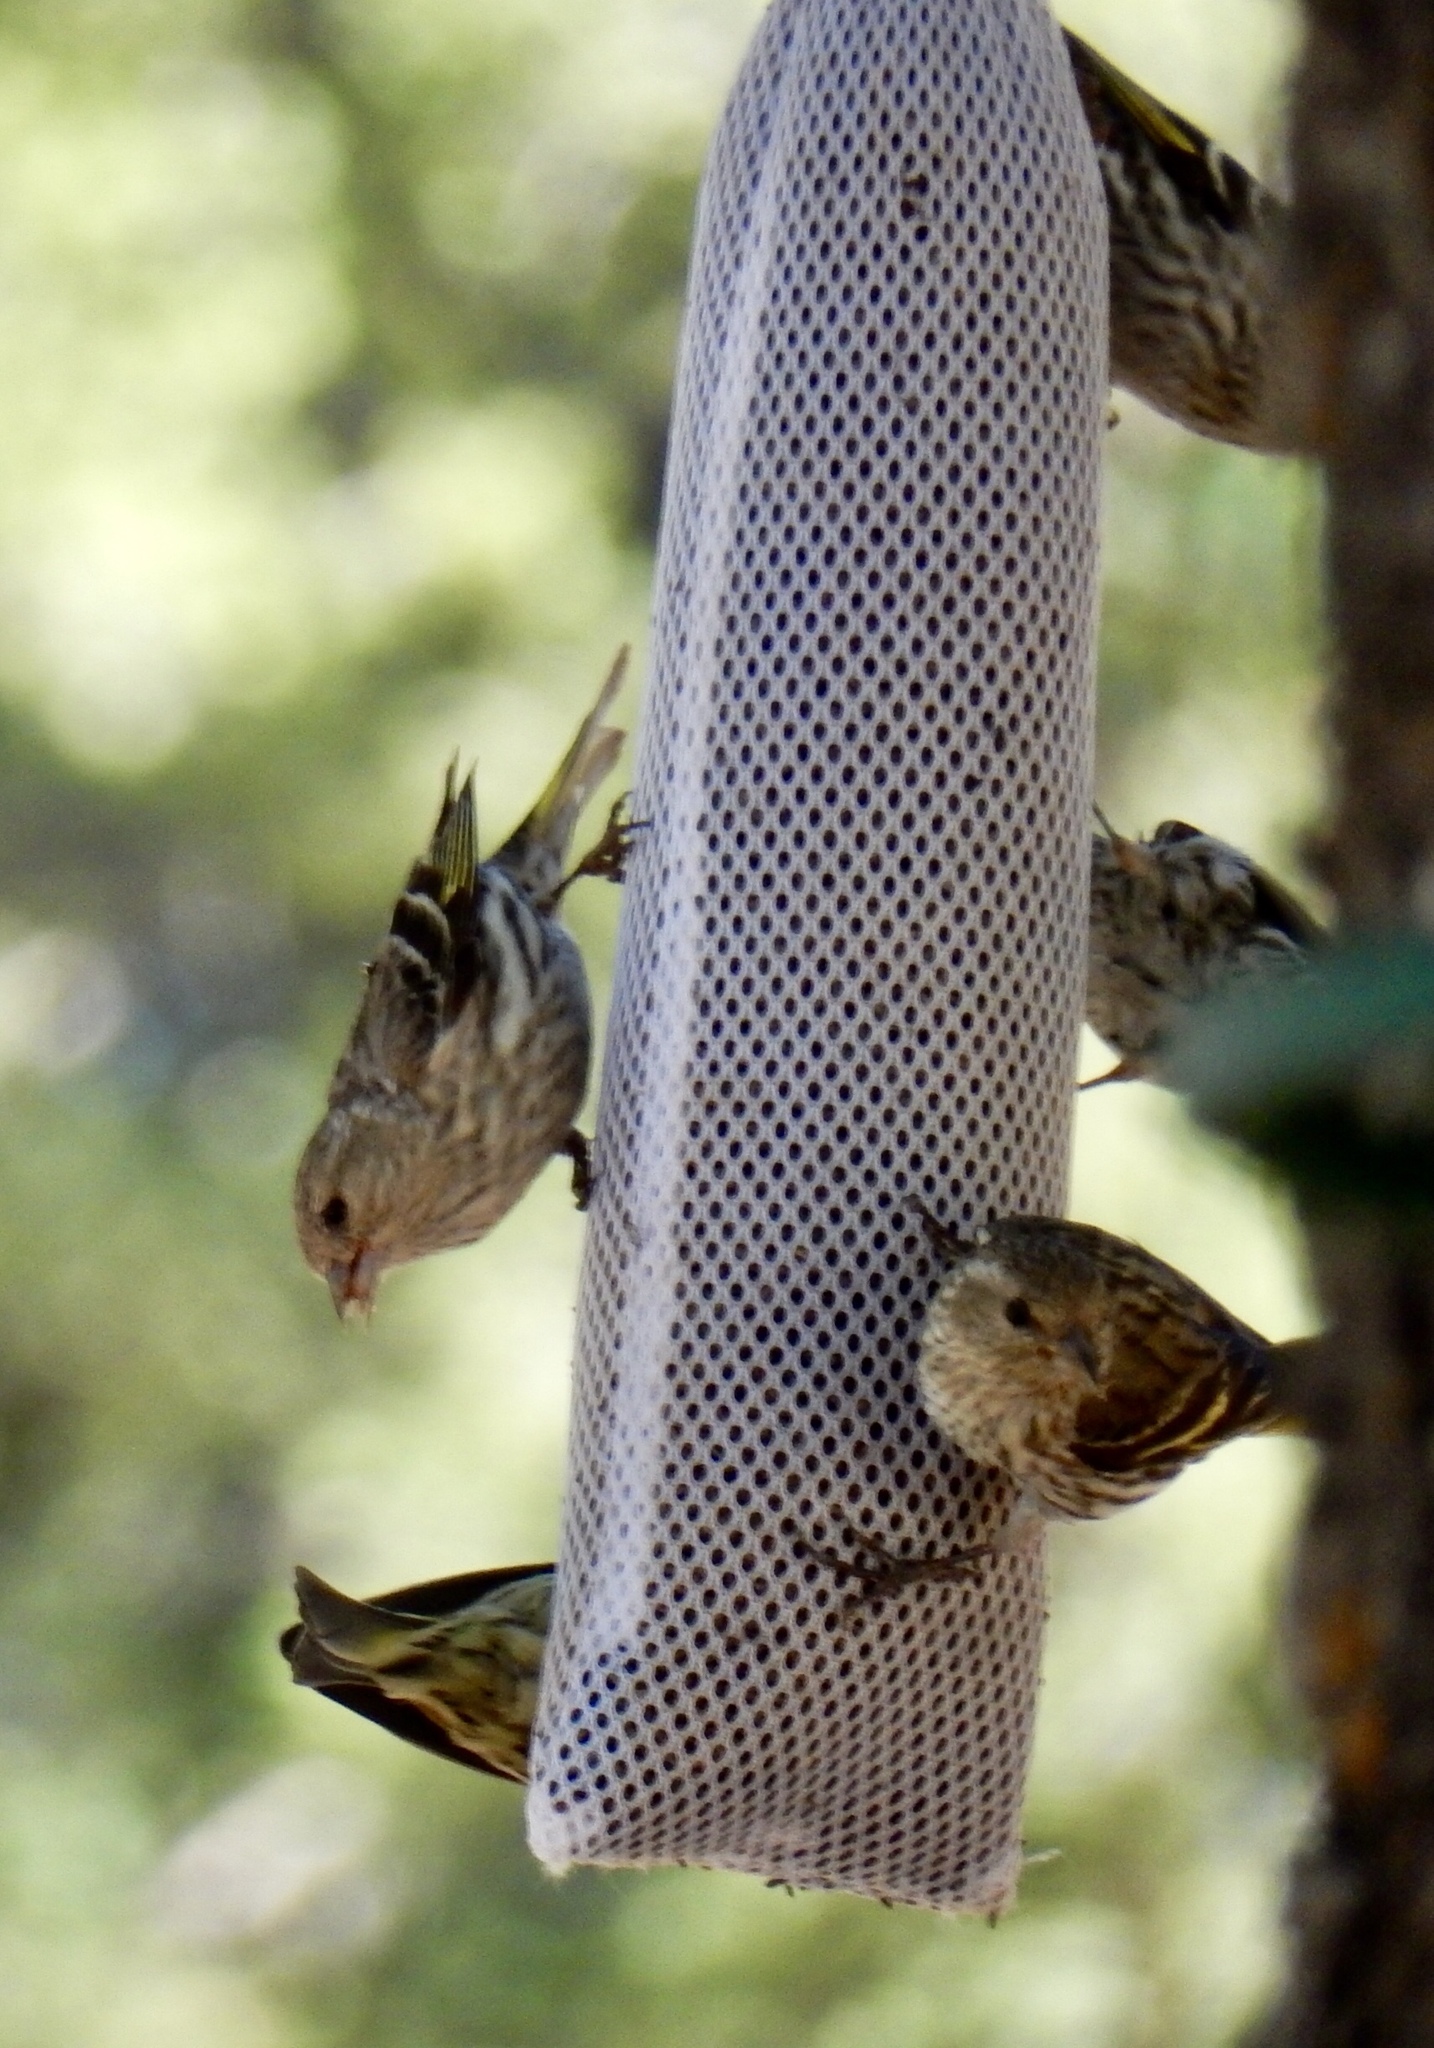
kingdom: Animalia
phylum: Chordata
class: Aves
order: Passeriformes
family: Fringillidae
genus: Spinus
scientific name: Spinus pinus
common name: Pine siskin
